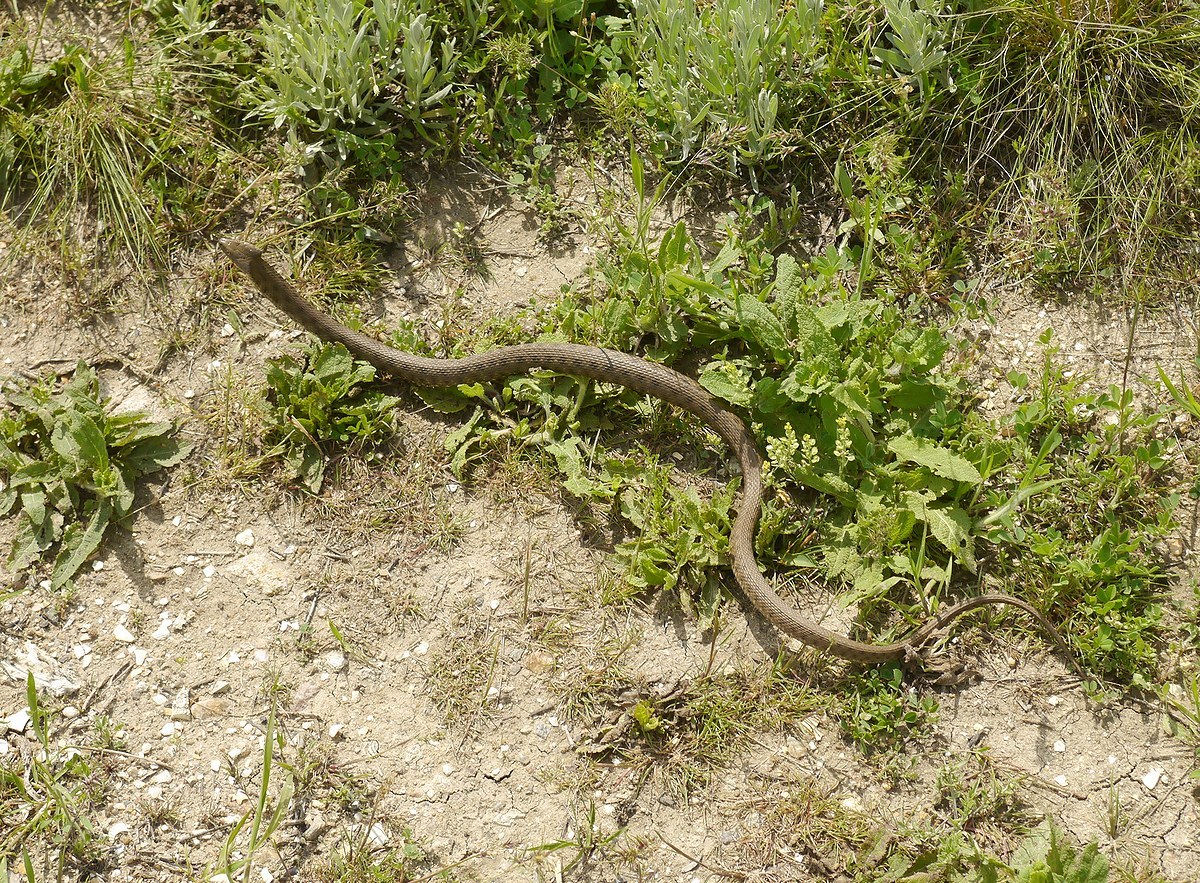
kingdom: Animalia
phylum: Chordata
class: Squamata
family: Colubridae
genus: Natrix
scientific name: Natrix tessellata
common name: Dice snake
